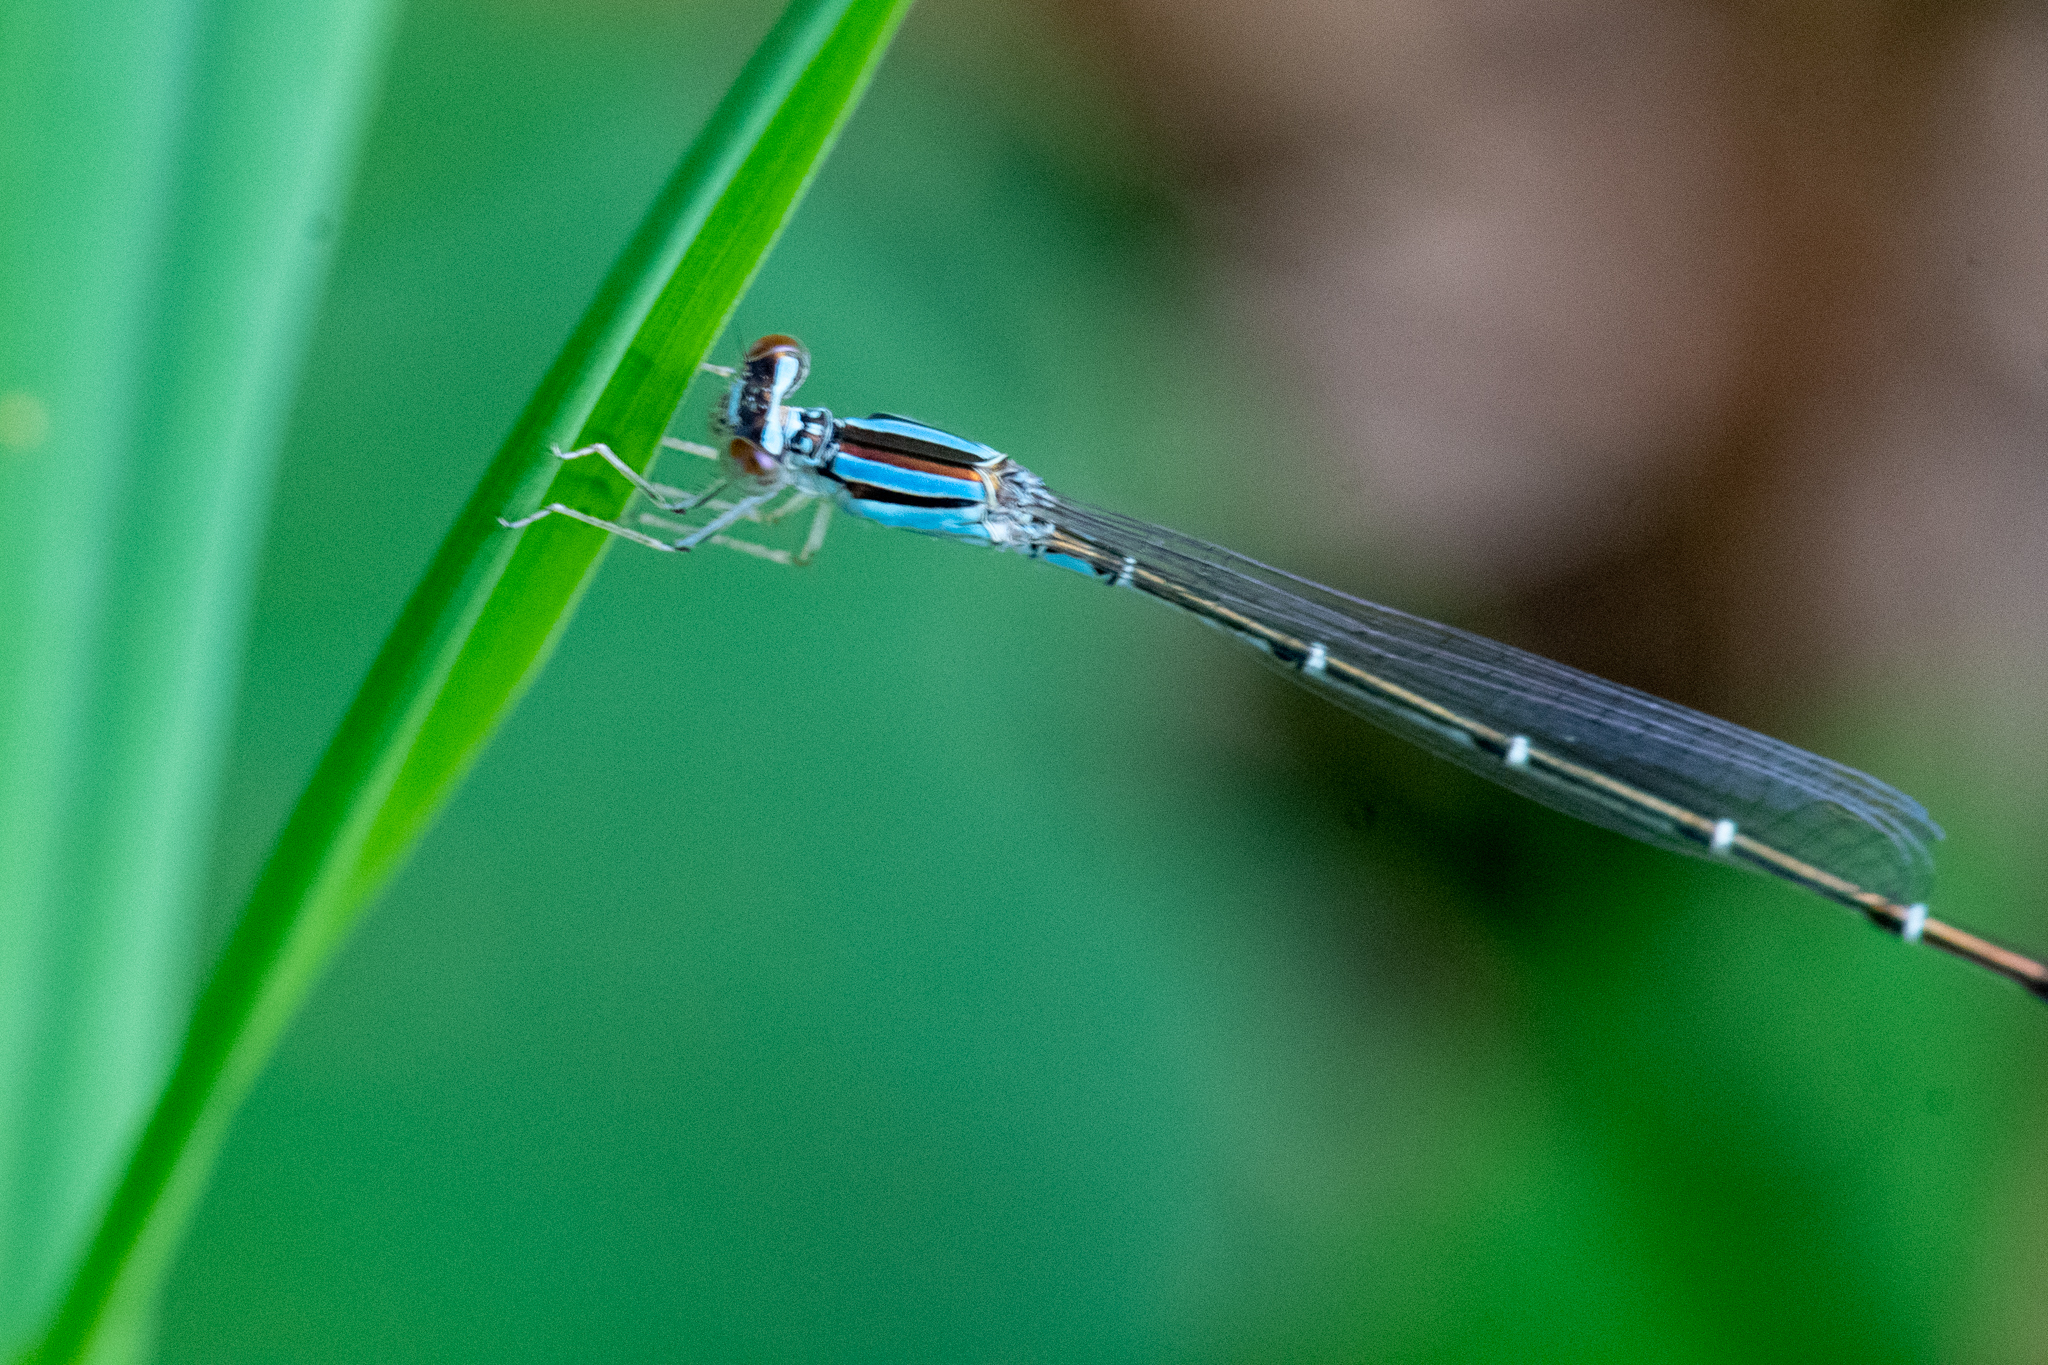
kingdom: Animalia
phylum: Arthropoda
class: Insecta
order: Odonata
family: Coenagrionidae
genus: Enallagma
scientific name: Enallagma signatum
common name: Orange bluet
